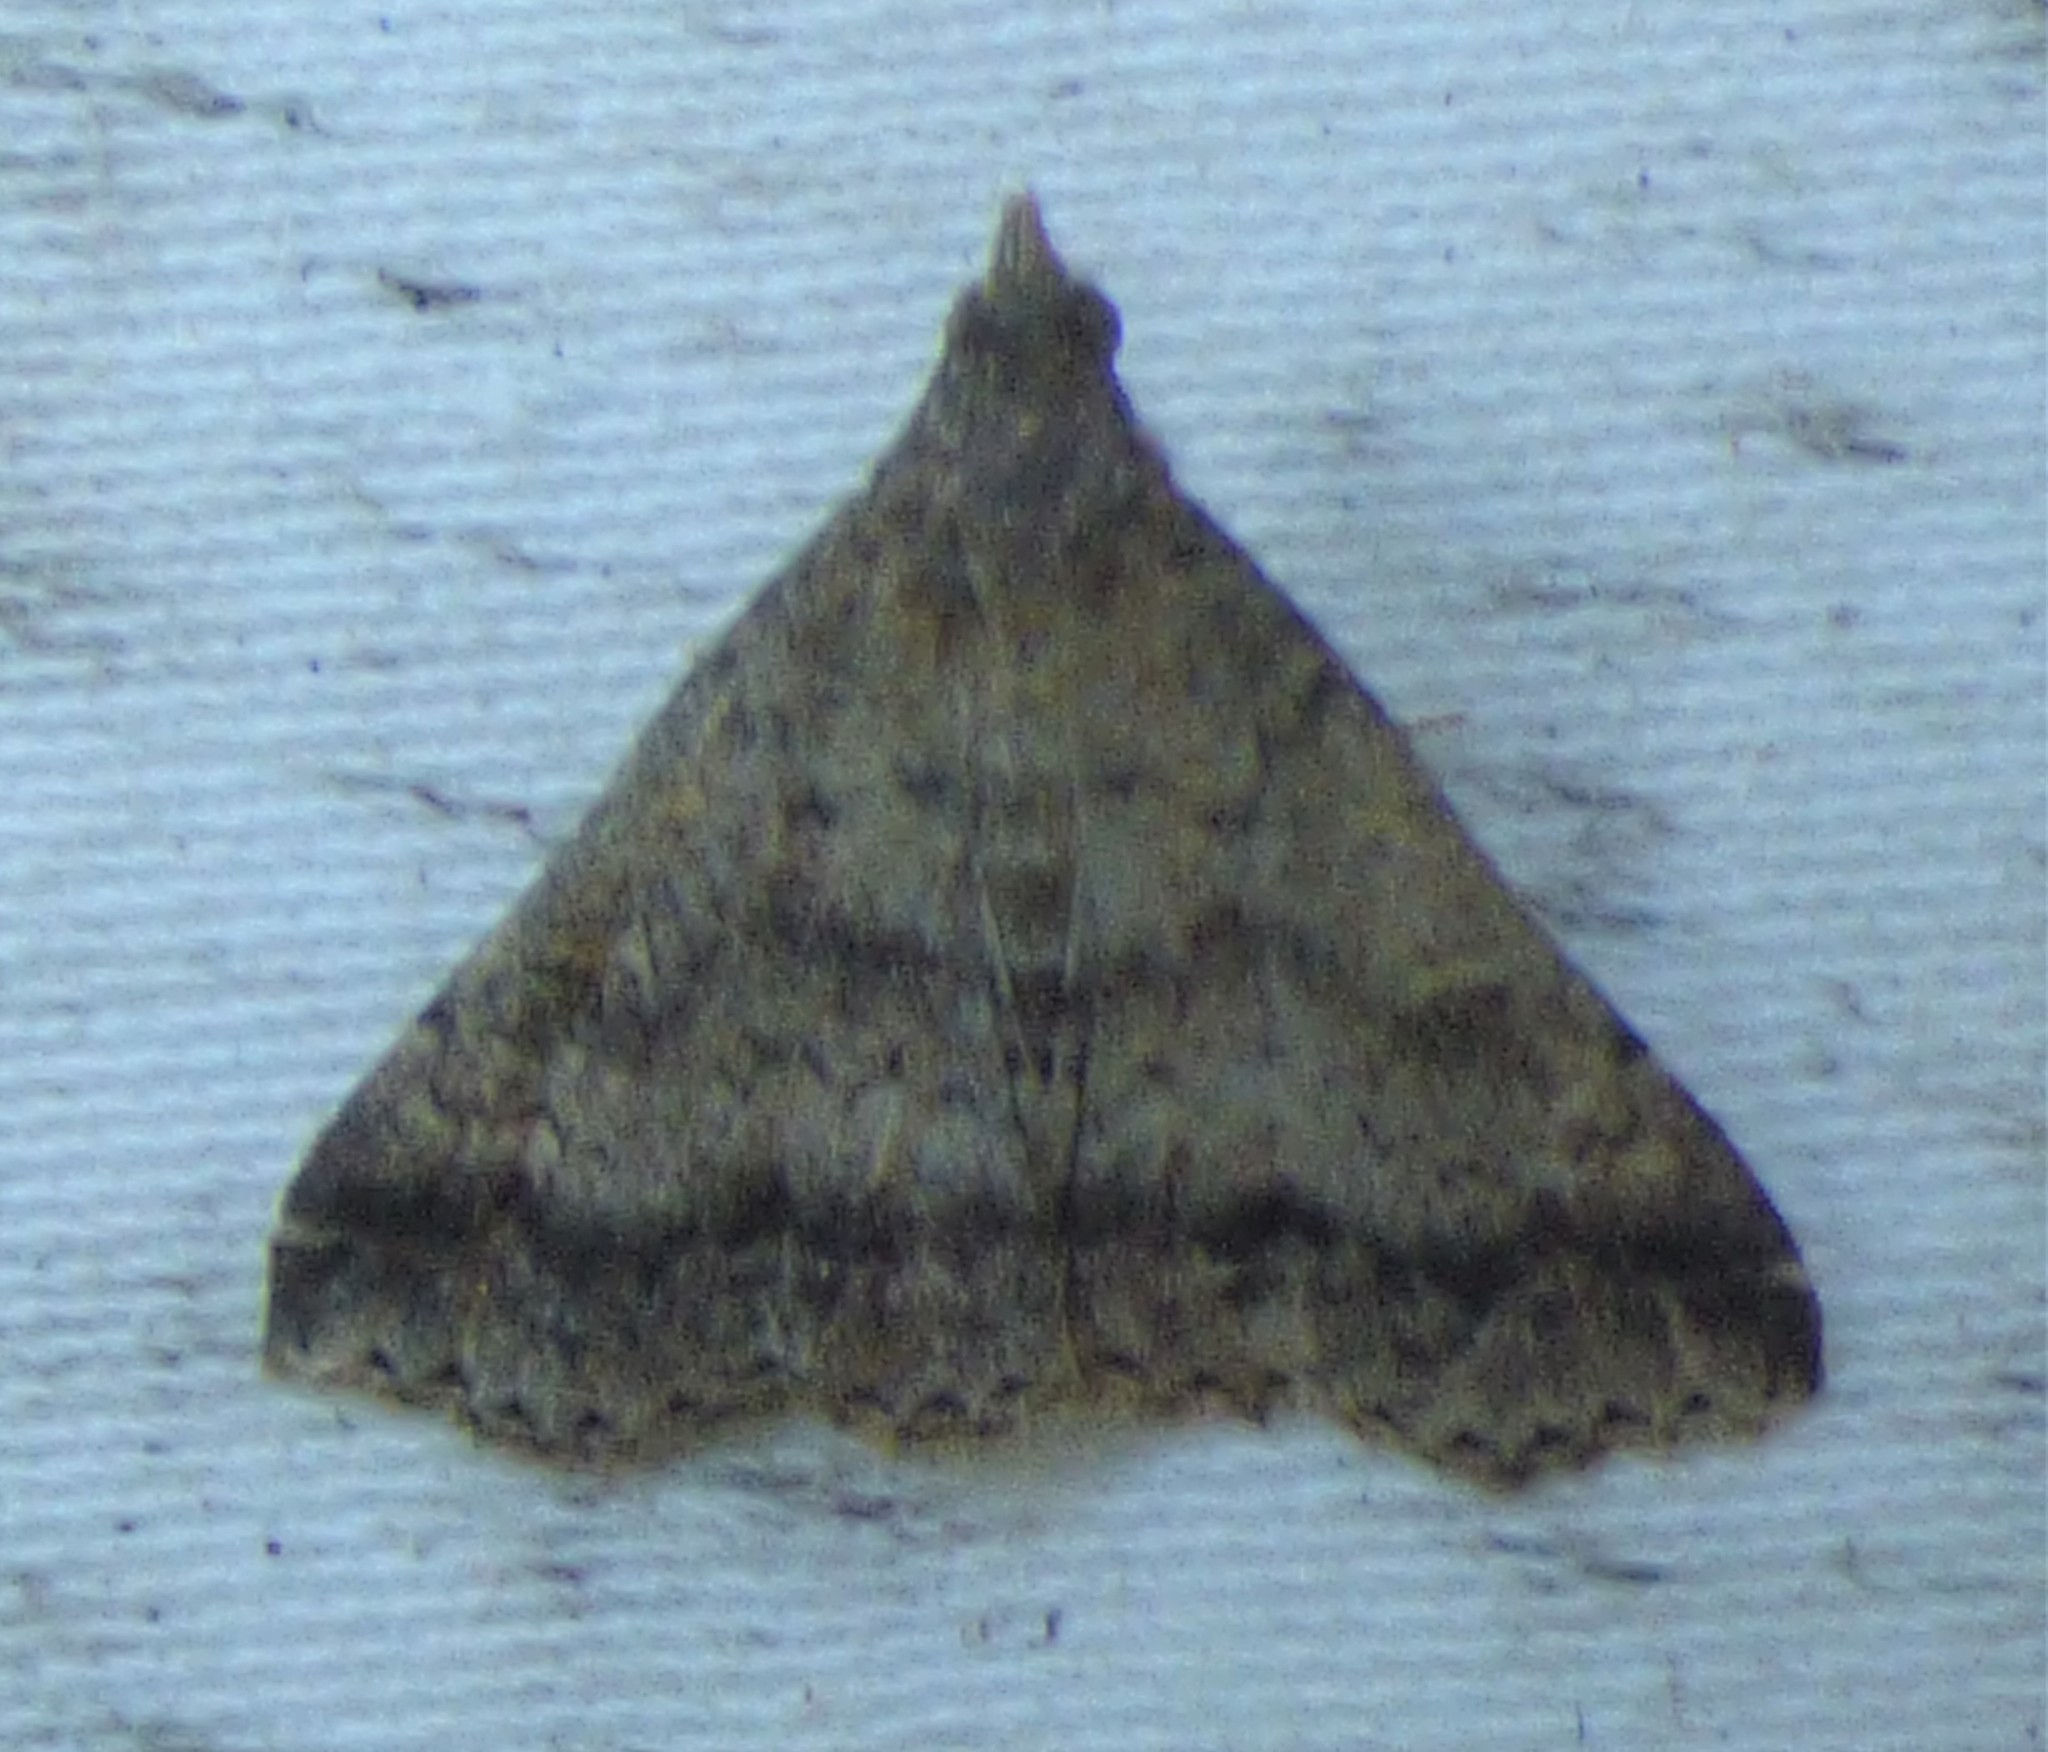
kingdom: Animalia
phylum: Arthropoda
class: Insecta
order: Lepidoptera
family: Erebidae
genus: Tetanolita
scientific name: Tetanolita floridana
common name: Florida tetanolita moth
